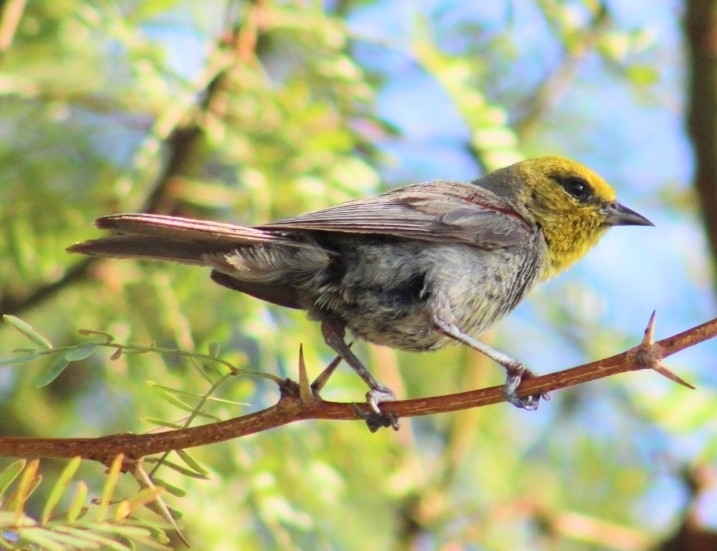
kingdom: Animalia
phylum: Chordata
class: Aves
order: Passeriformes
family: Remizidae
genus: Auriparus
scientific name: Auriparus flaviceps
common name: Verdin
